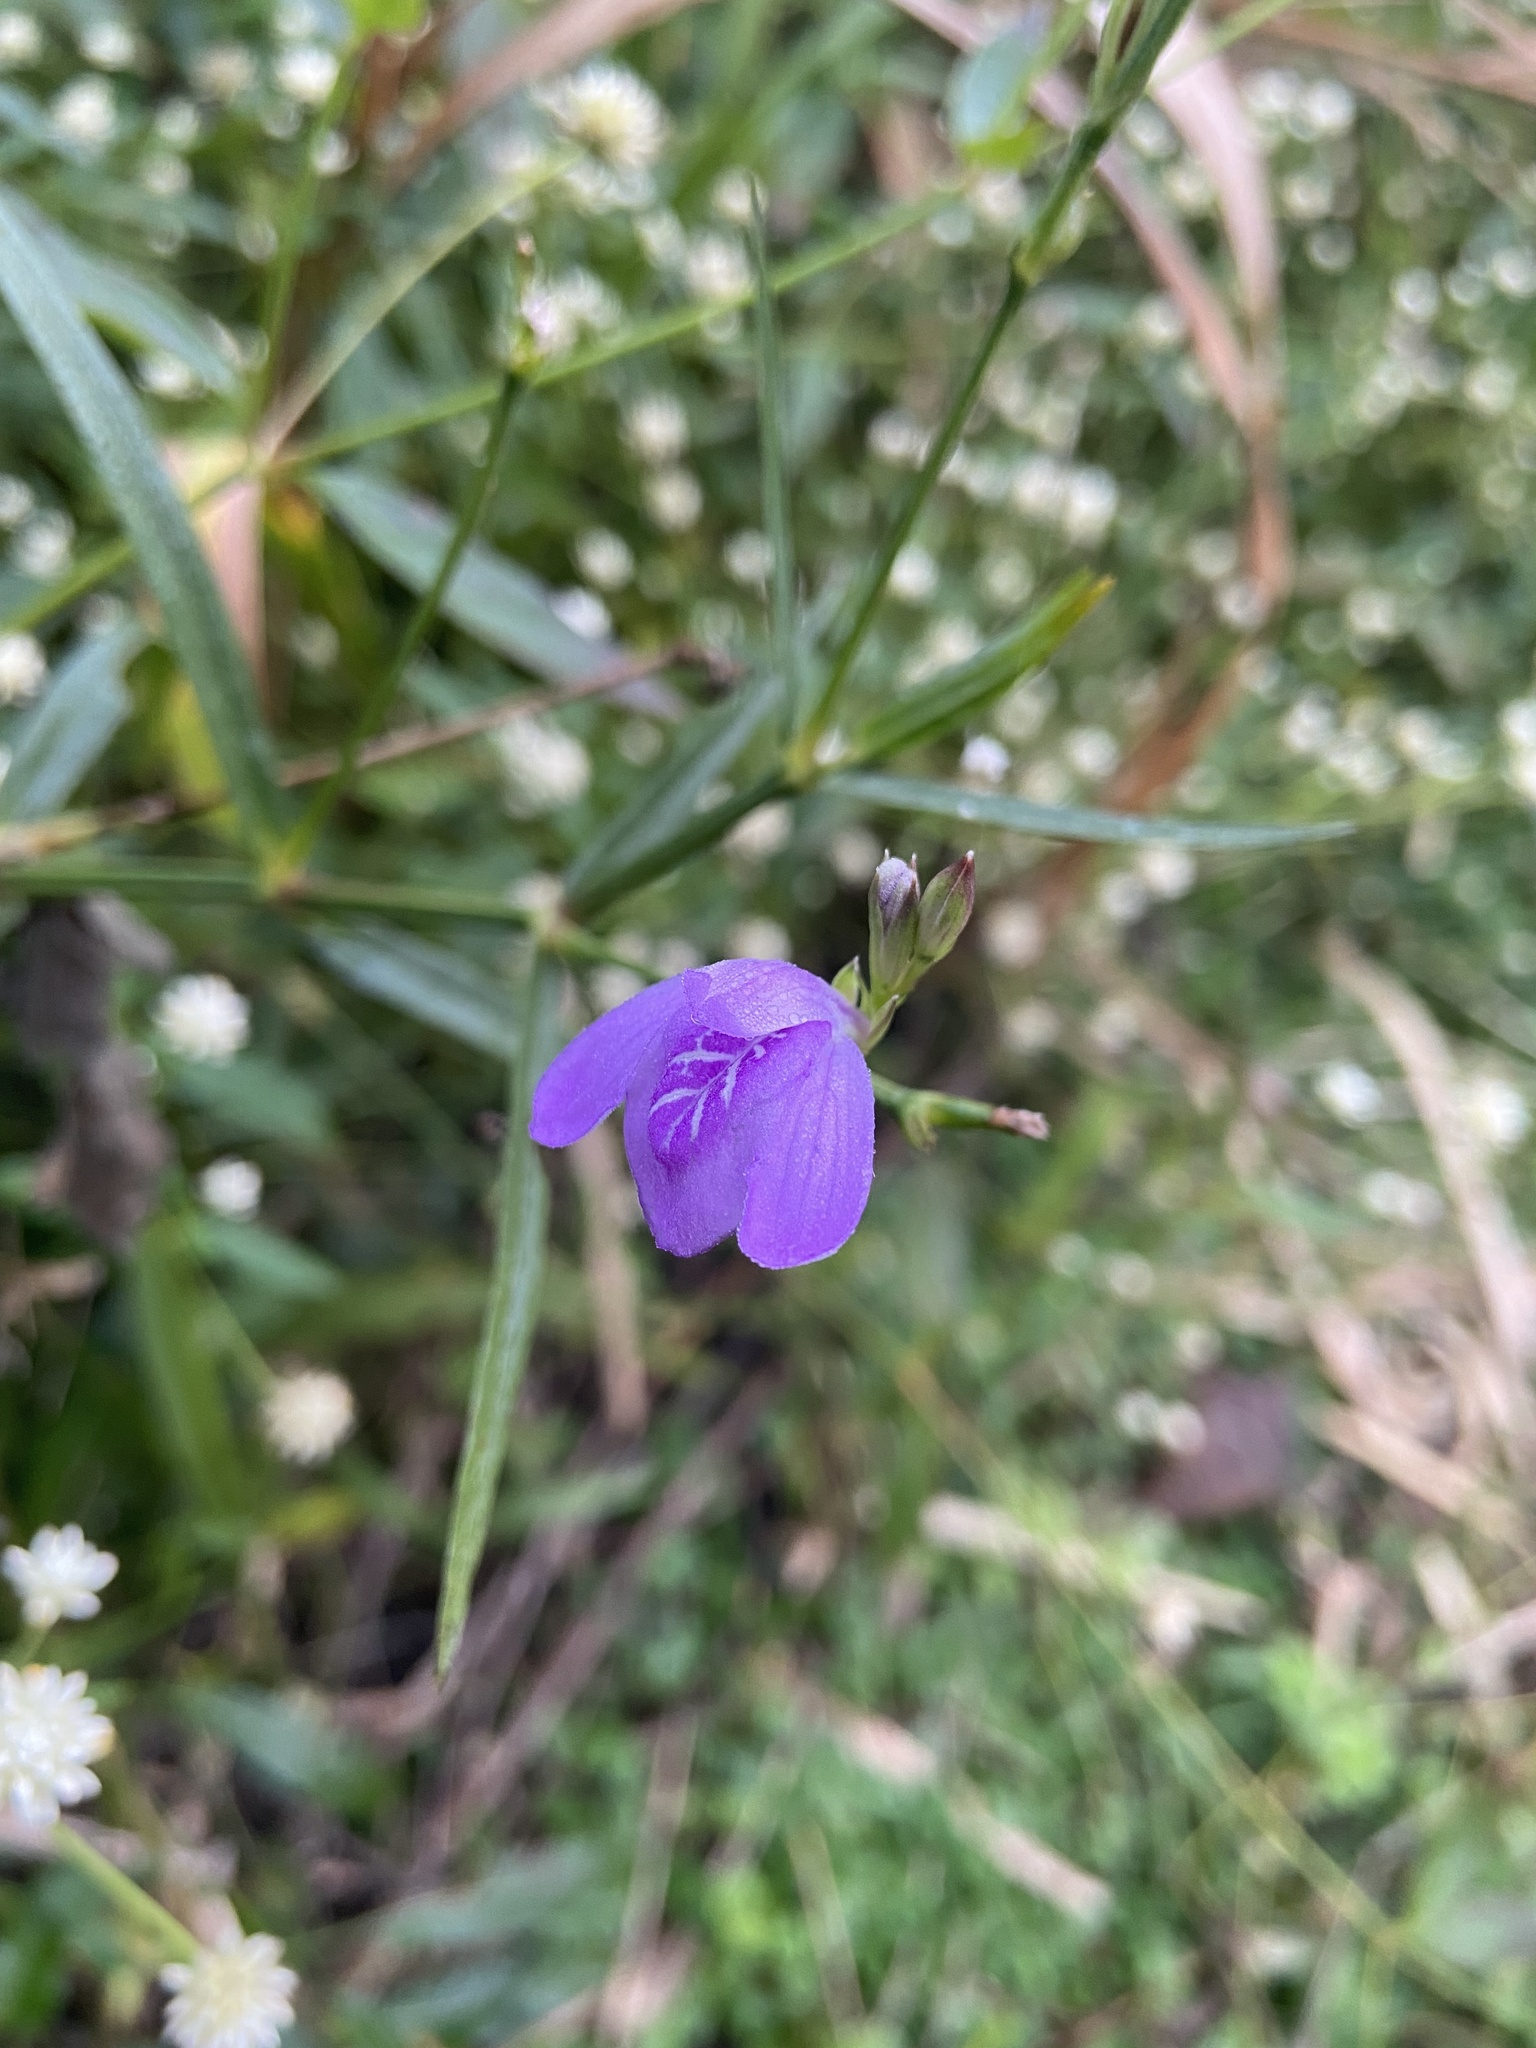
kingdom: Plantae
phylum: Tracheophyta
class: Magnoliopsida
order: Lamiales
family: Acanthaceae
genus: Dianthera
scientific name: Dianthera laevilinguis
